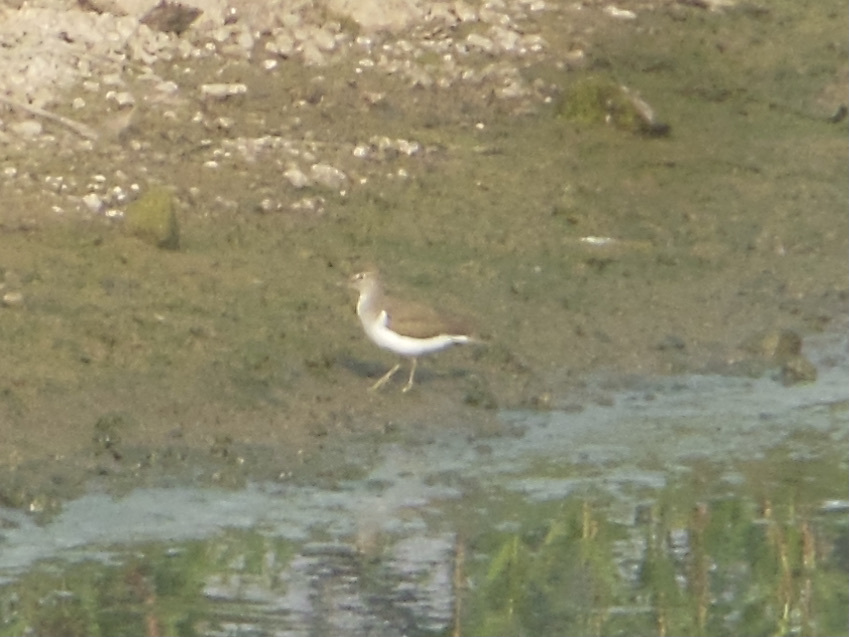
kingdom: Animalia
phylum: Chordata
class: Aves
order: Charadriiformes
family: Scolopacidae
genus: Actitis
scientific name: Actitis hypoleucos
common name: Common sandpiper
